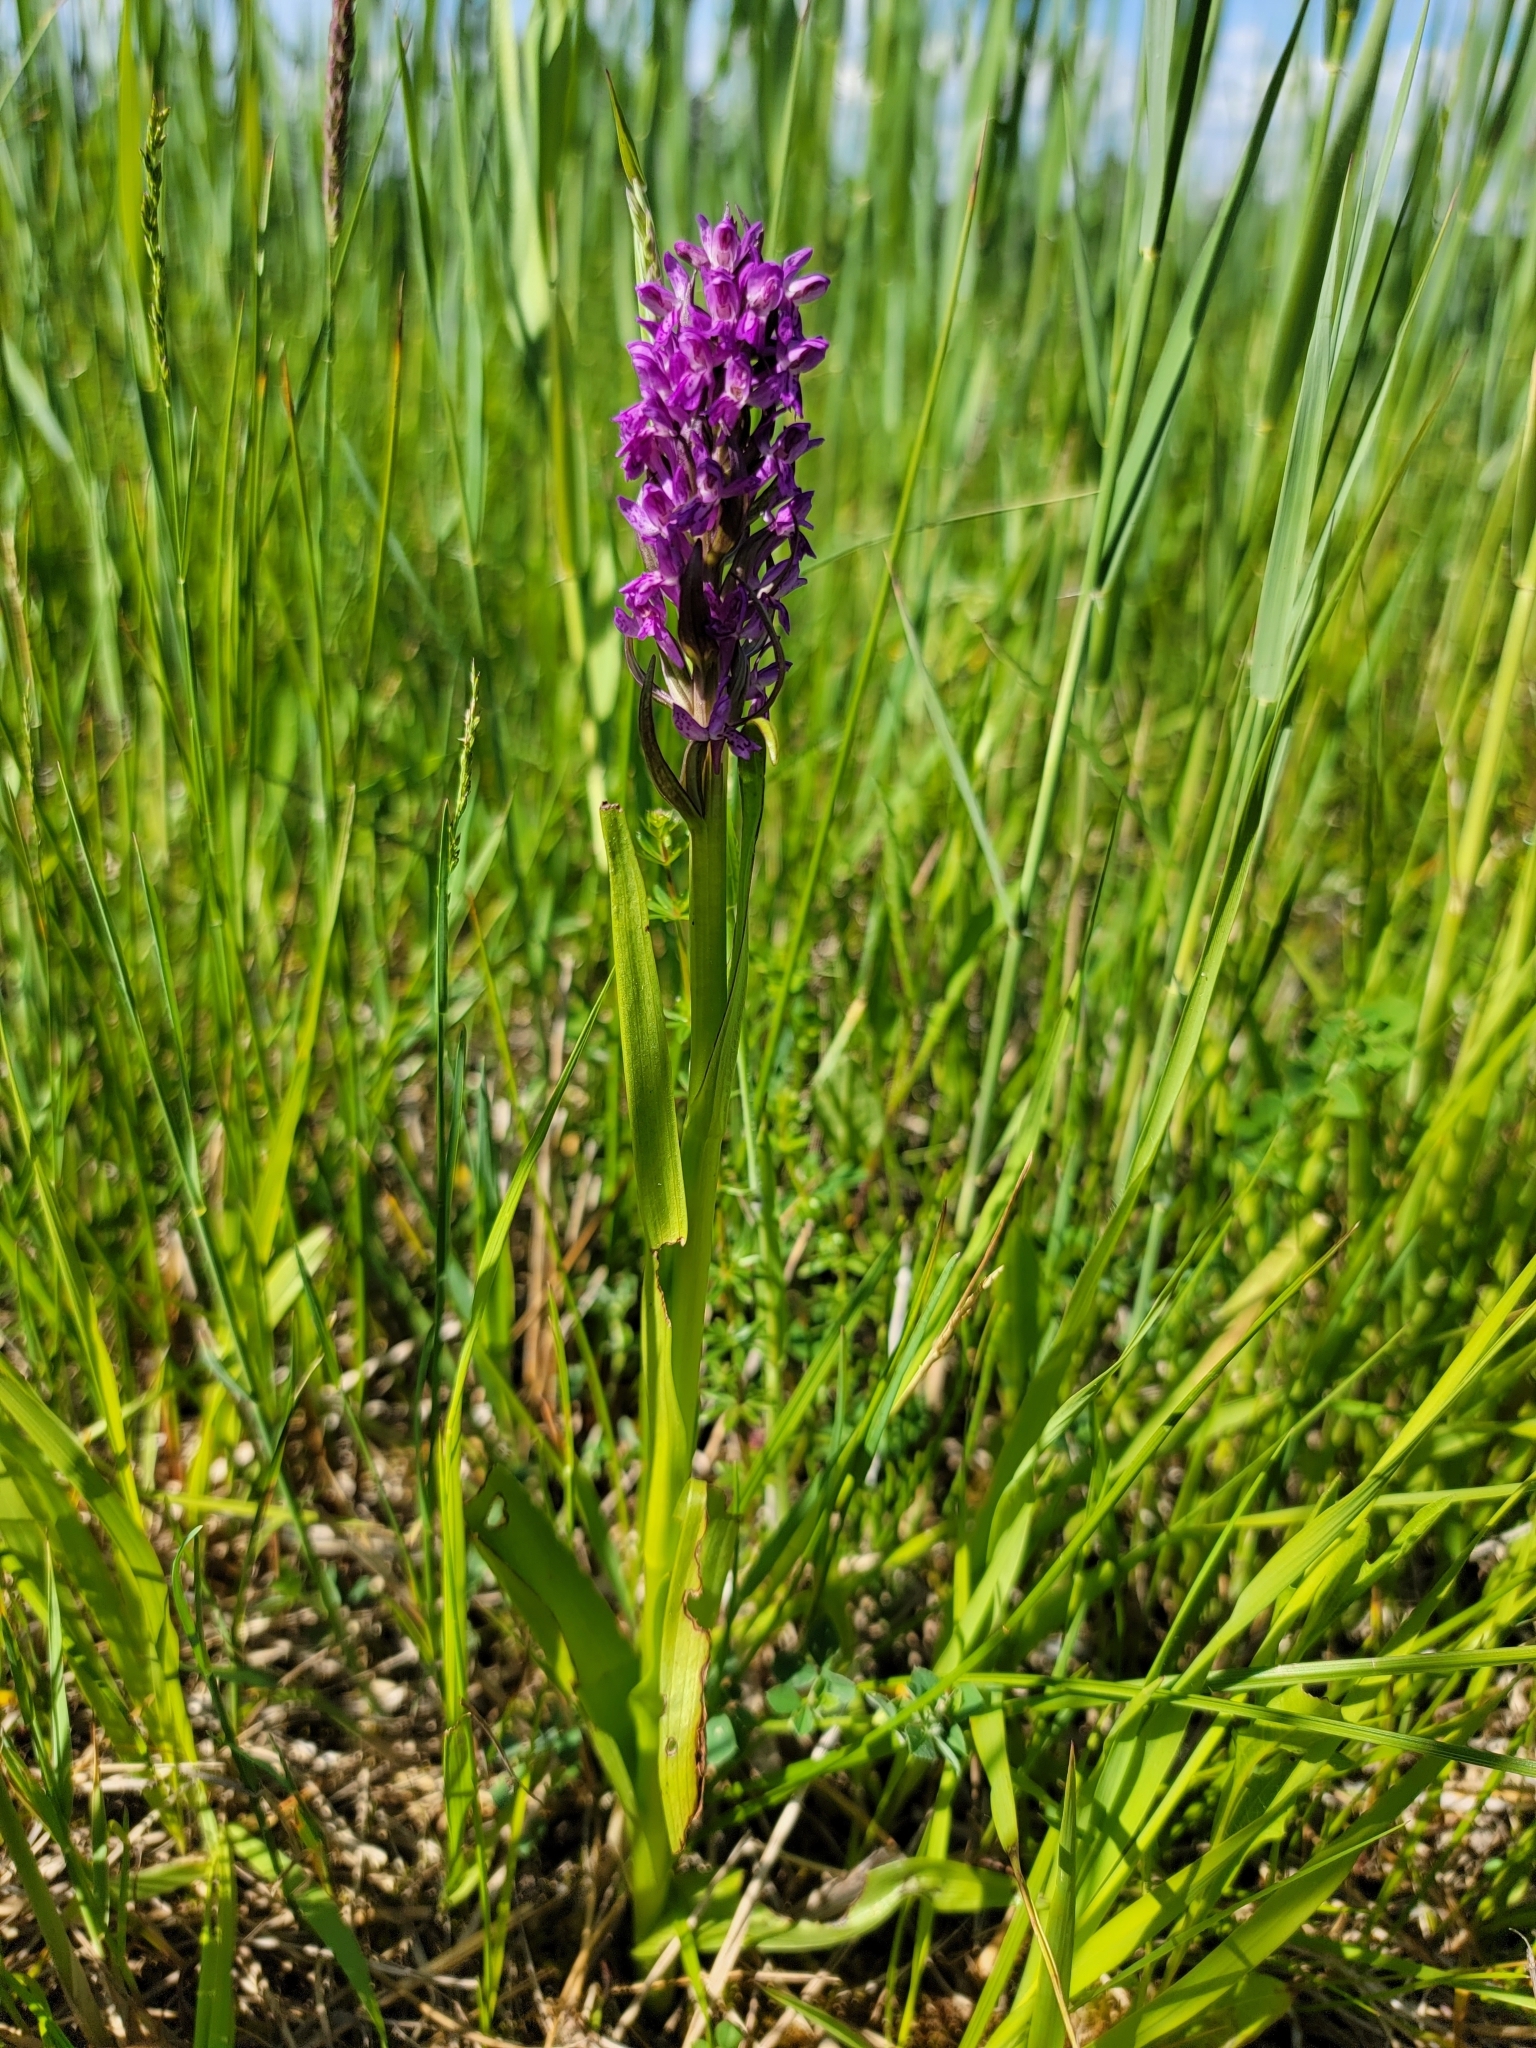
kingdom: Plantae
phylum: Tracheophyta
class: Liliopsida
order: Asparagales
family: Orchidaceae
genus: Dactylorhiza
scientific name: Dactylorhiza incarnata
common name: Early marsh-orchid
